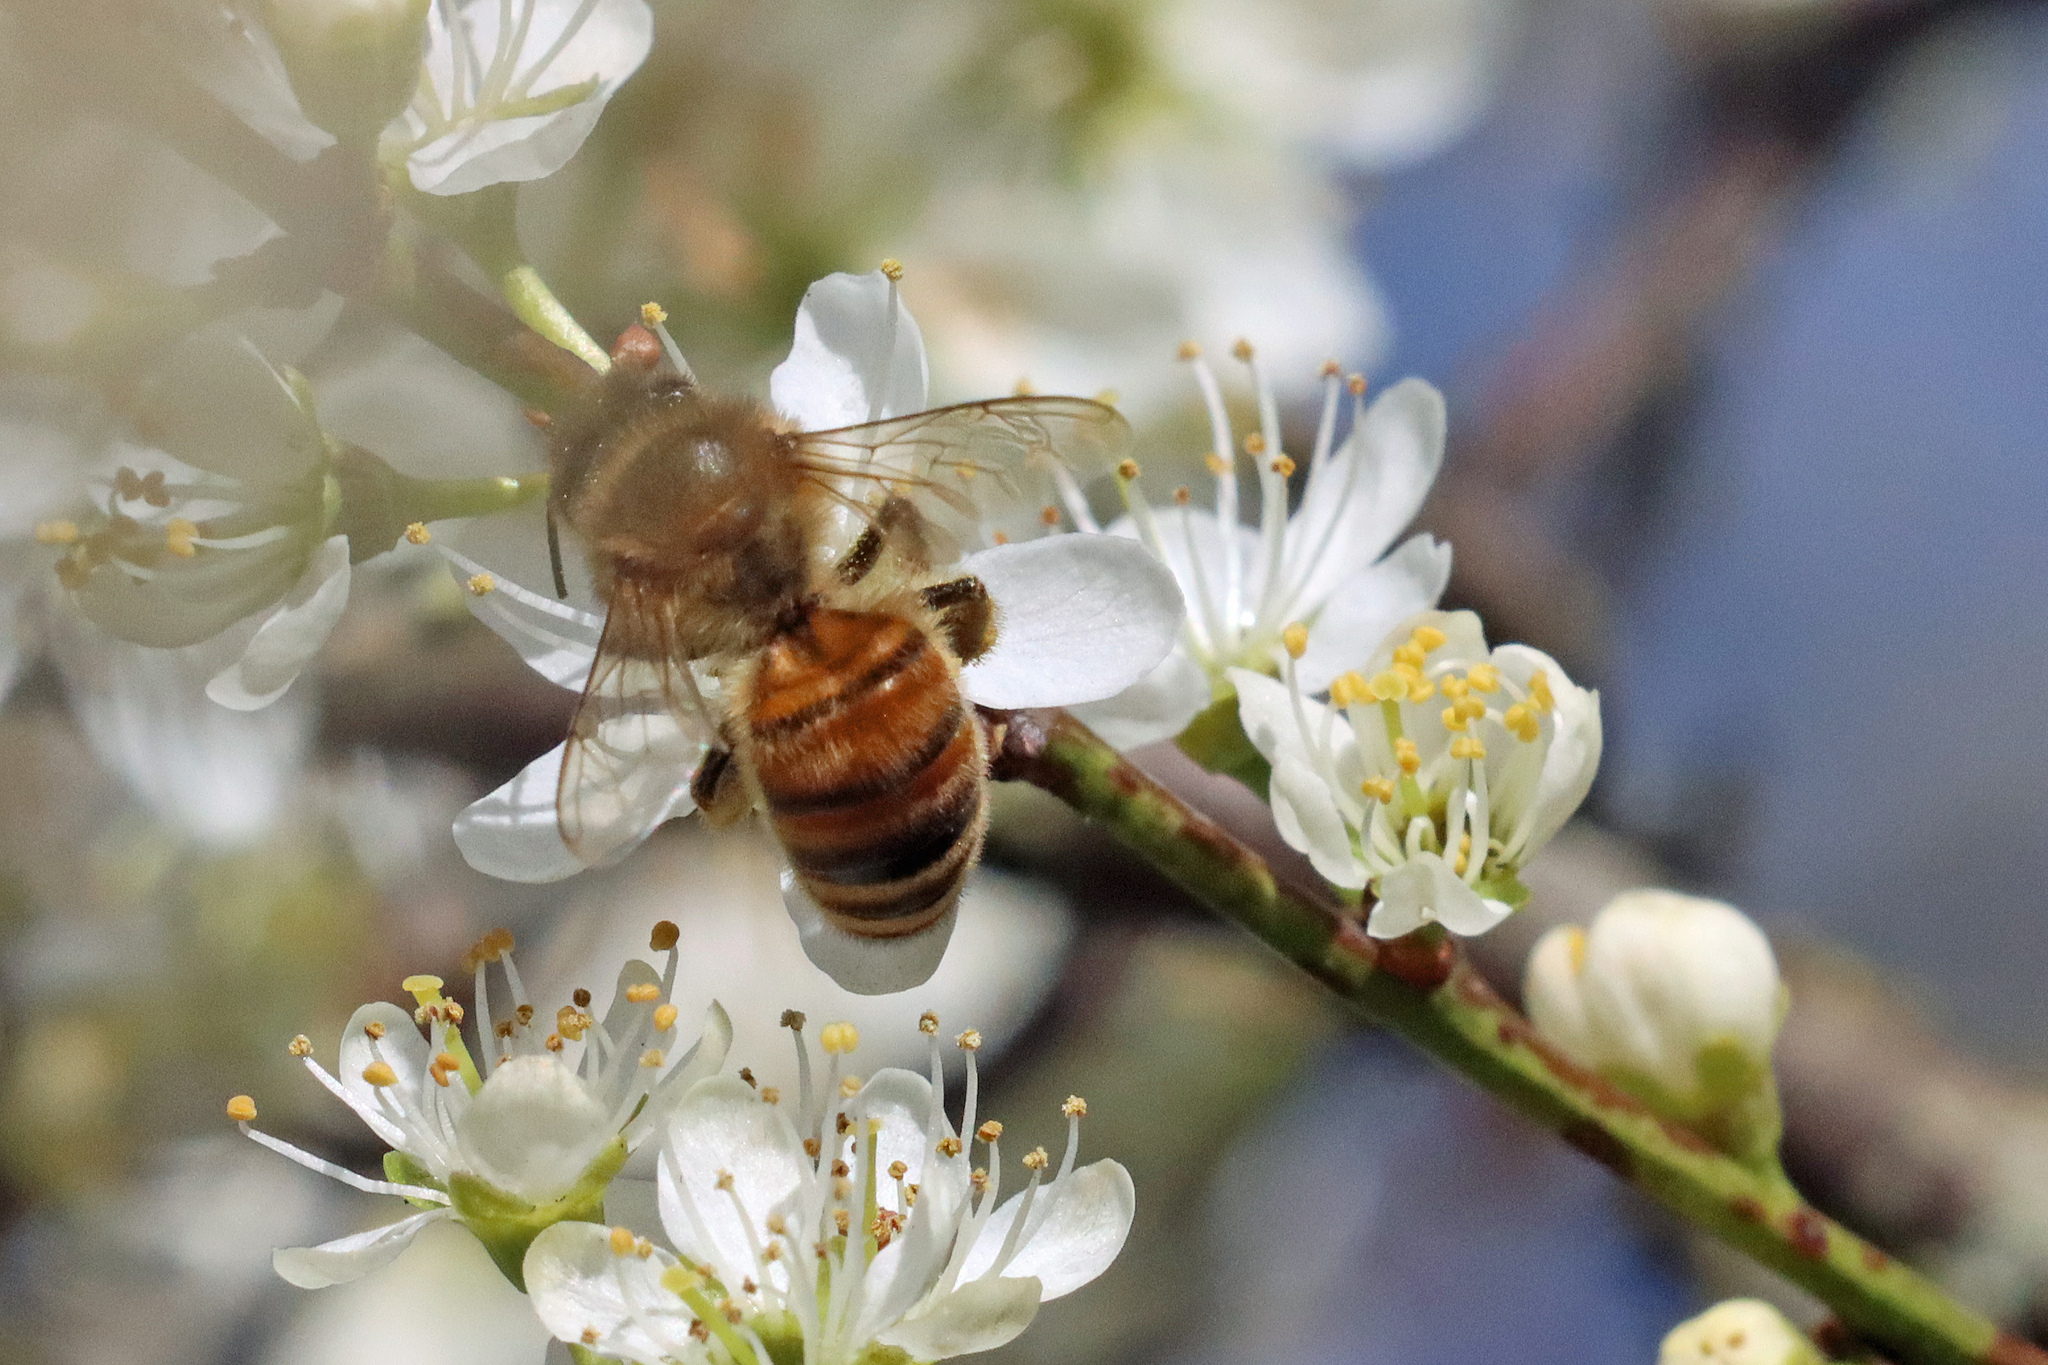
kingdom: Animalia
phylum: Arthropoda
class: Insecta
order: Hymenoptera
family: Apidae
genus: Apis
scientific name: Apis mellifera
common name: Honey bee
